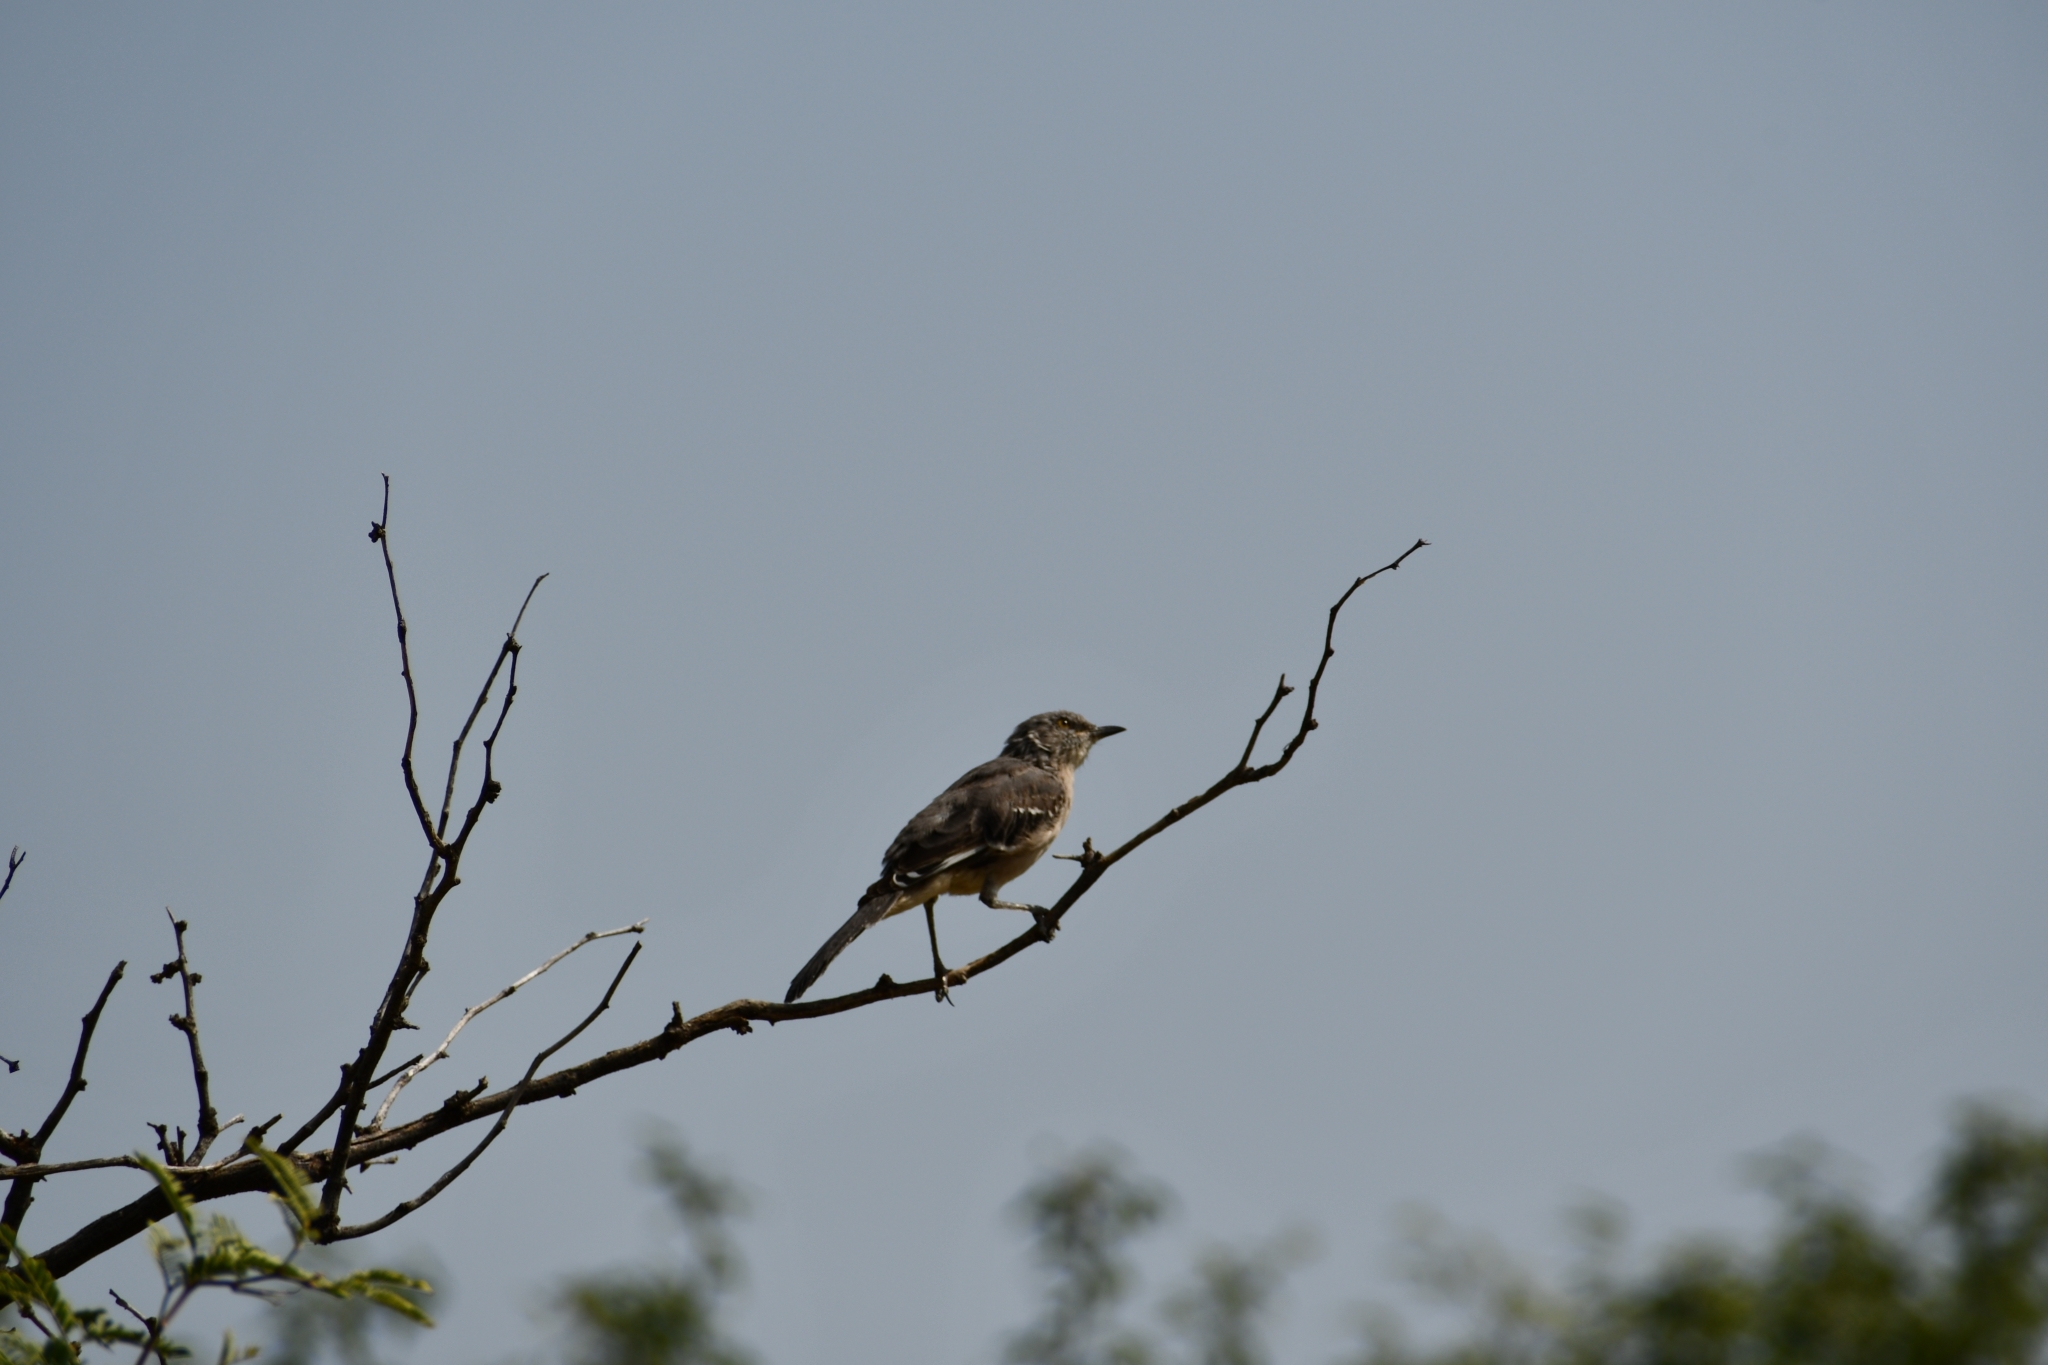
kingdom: Animalia
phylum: Chordata
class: Aves
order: Passeriformes
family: Mimidae
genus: Mimus
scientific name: Mimus polyglottos
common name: Northern mockingbird
